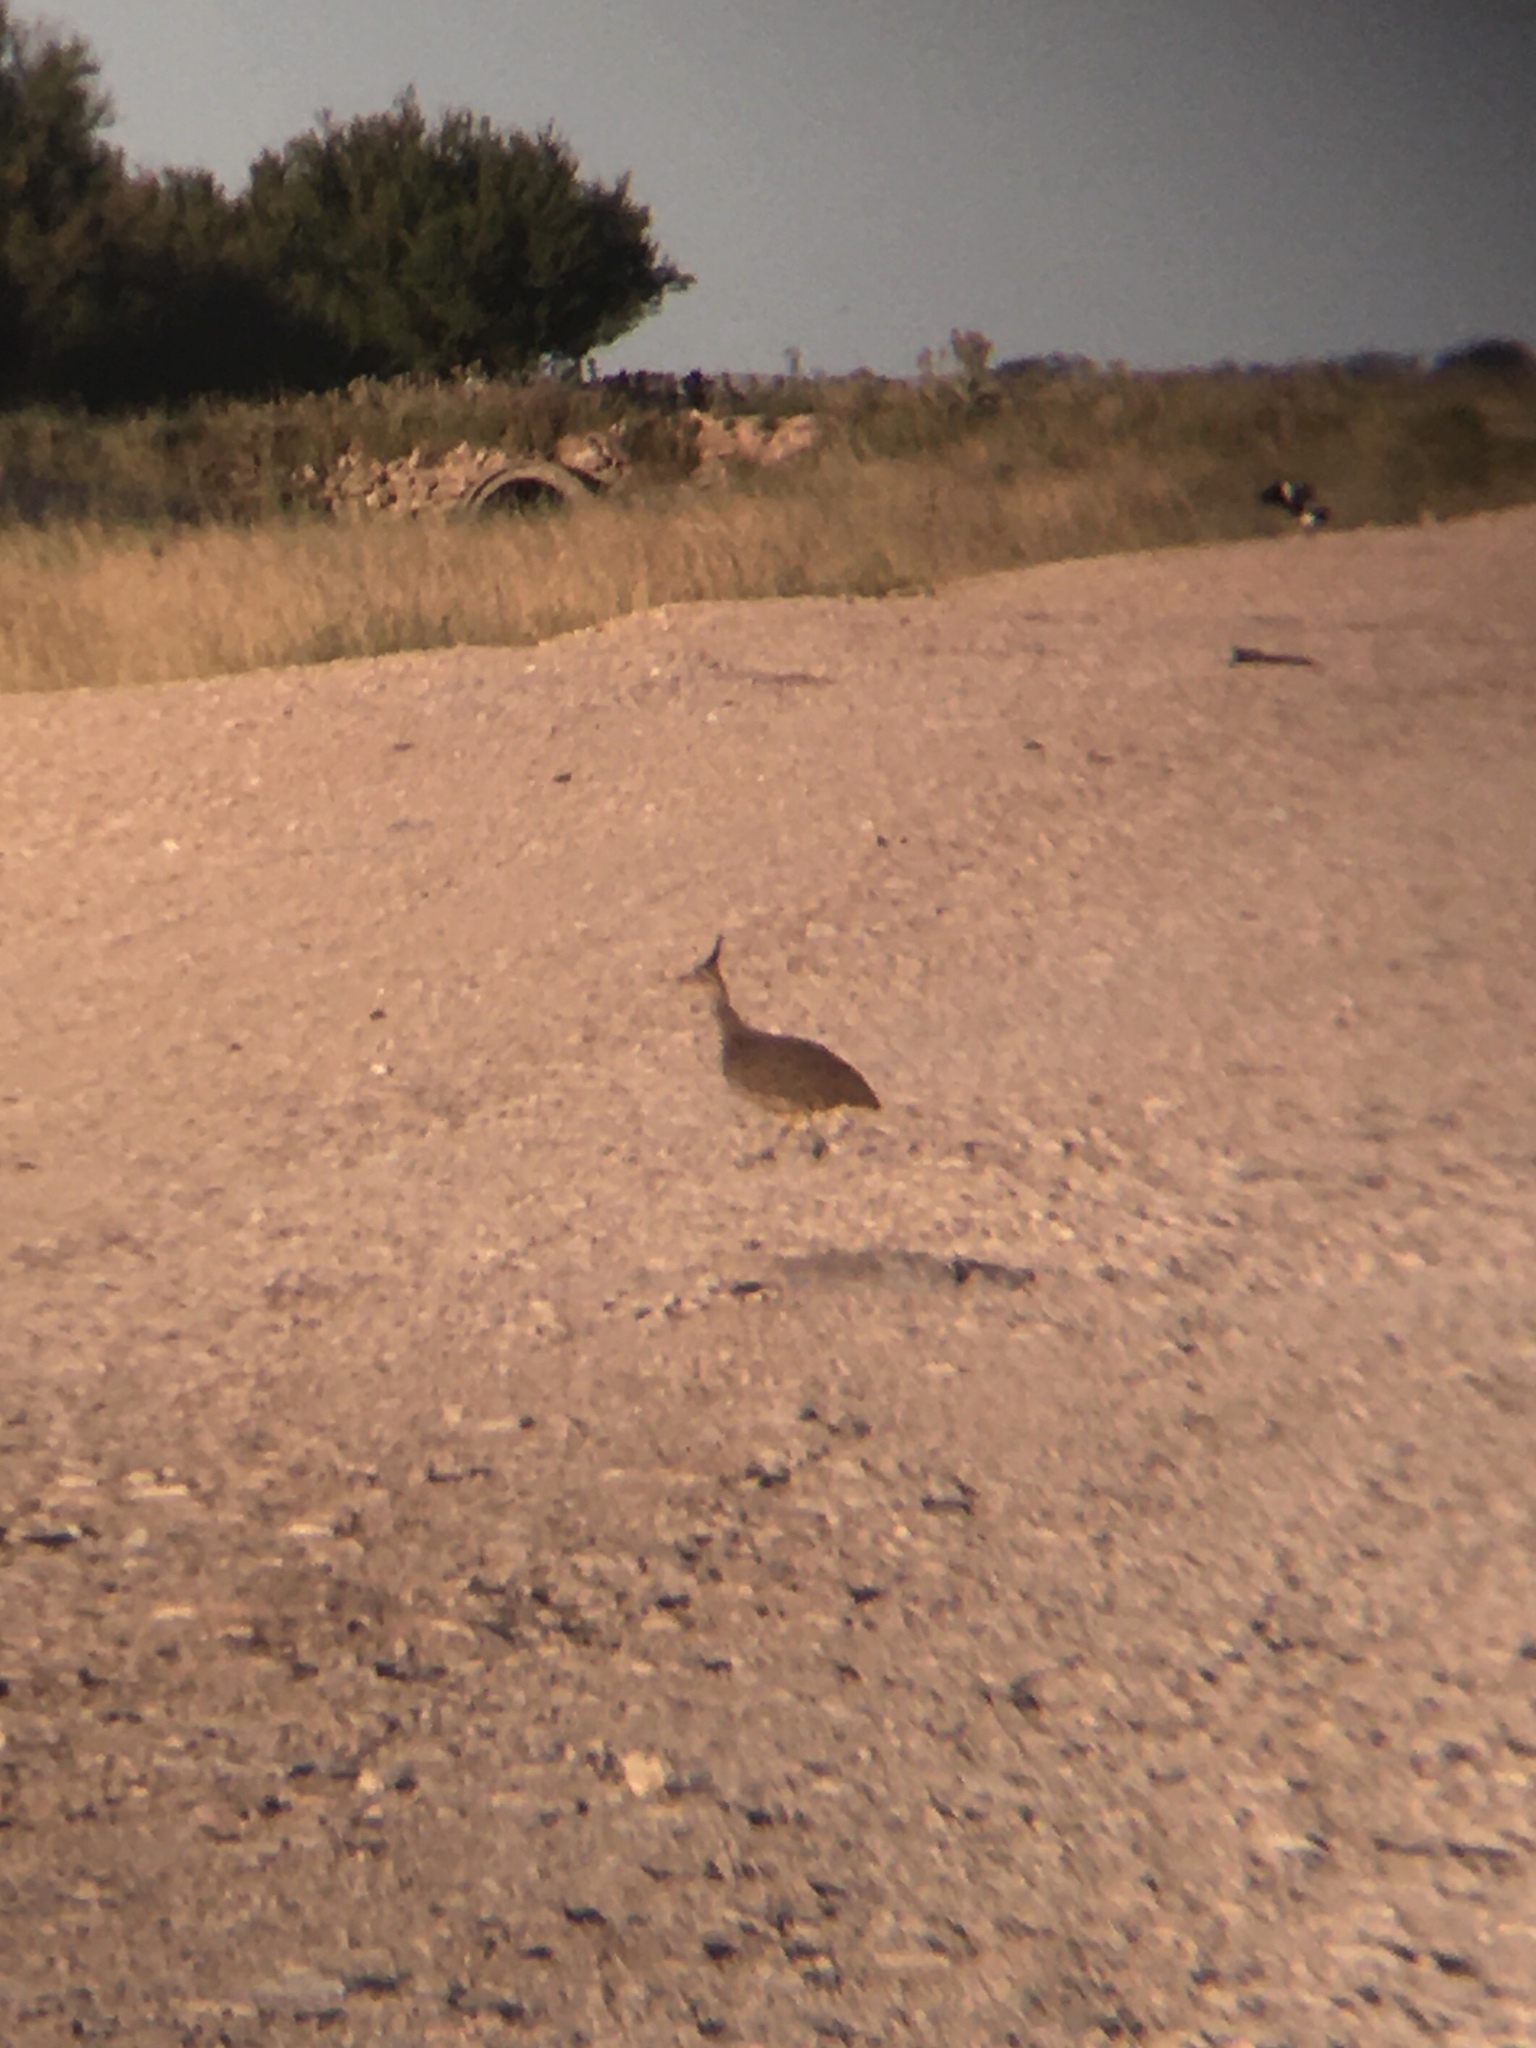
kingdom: Animalia
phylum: Chordata
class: Aves
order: Tinamiformes
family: Tinamidae
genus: Eudromia
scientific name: Eudromia elegans
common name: Elegant crested tinamou
